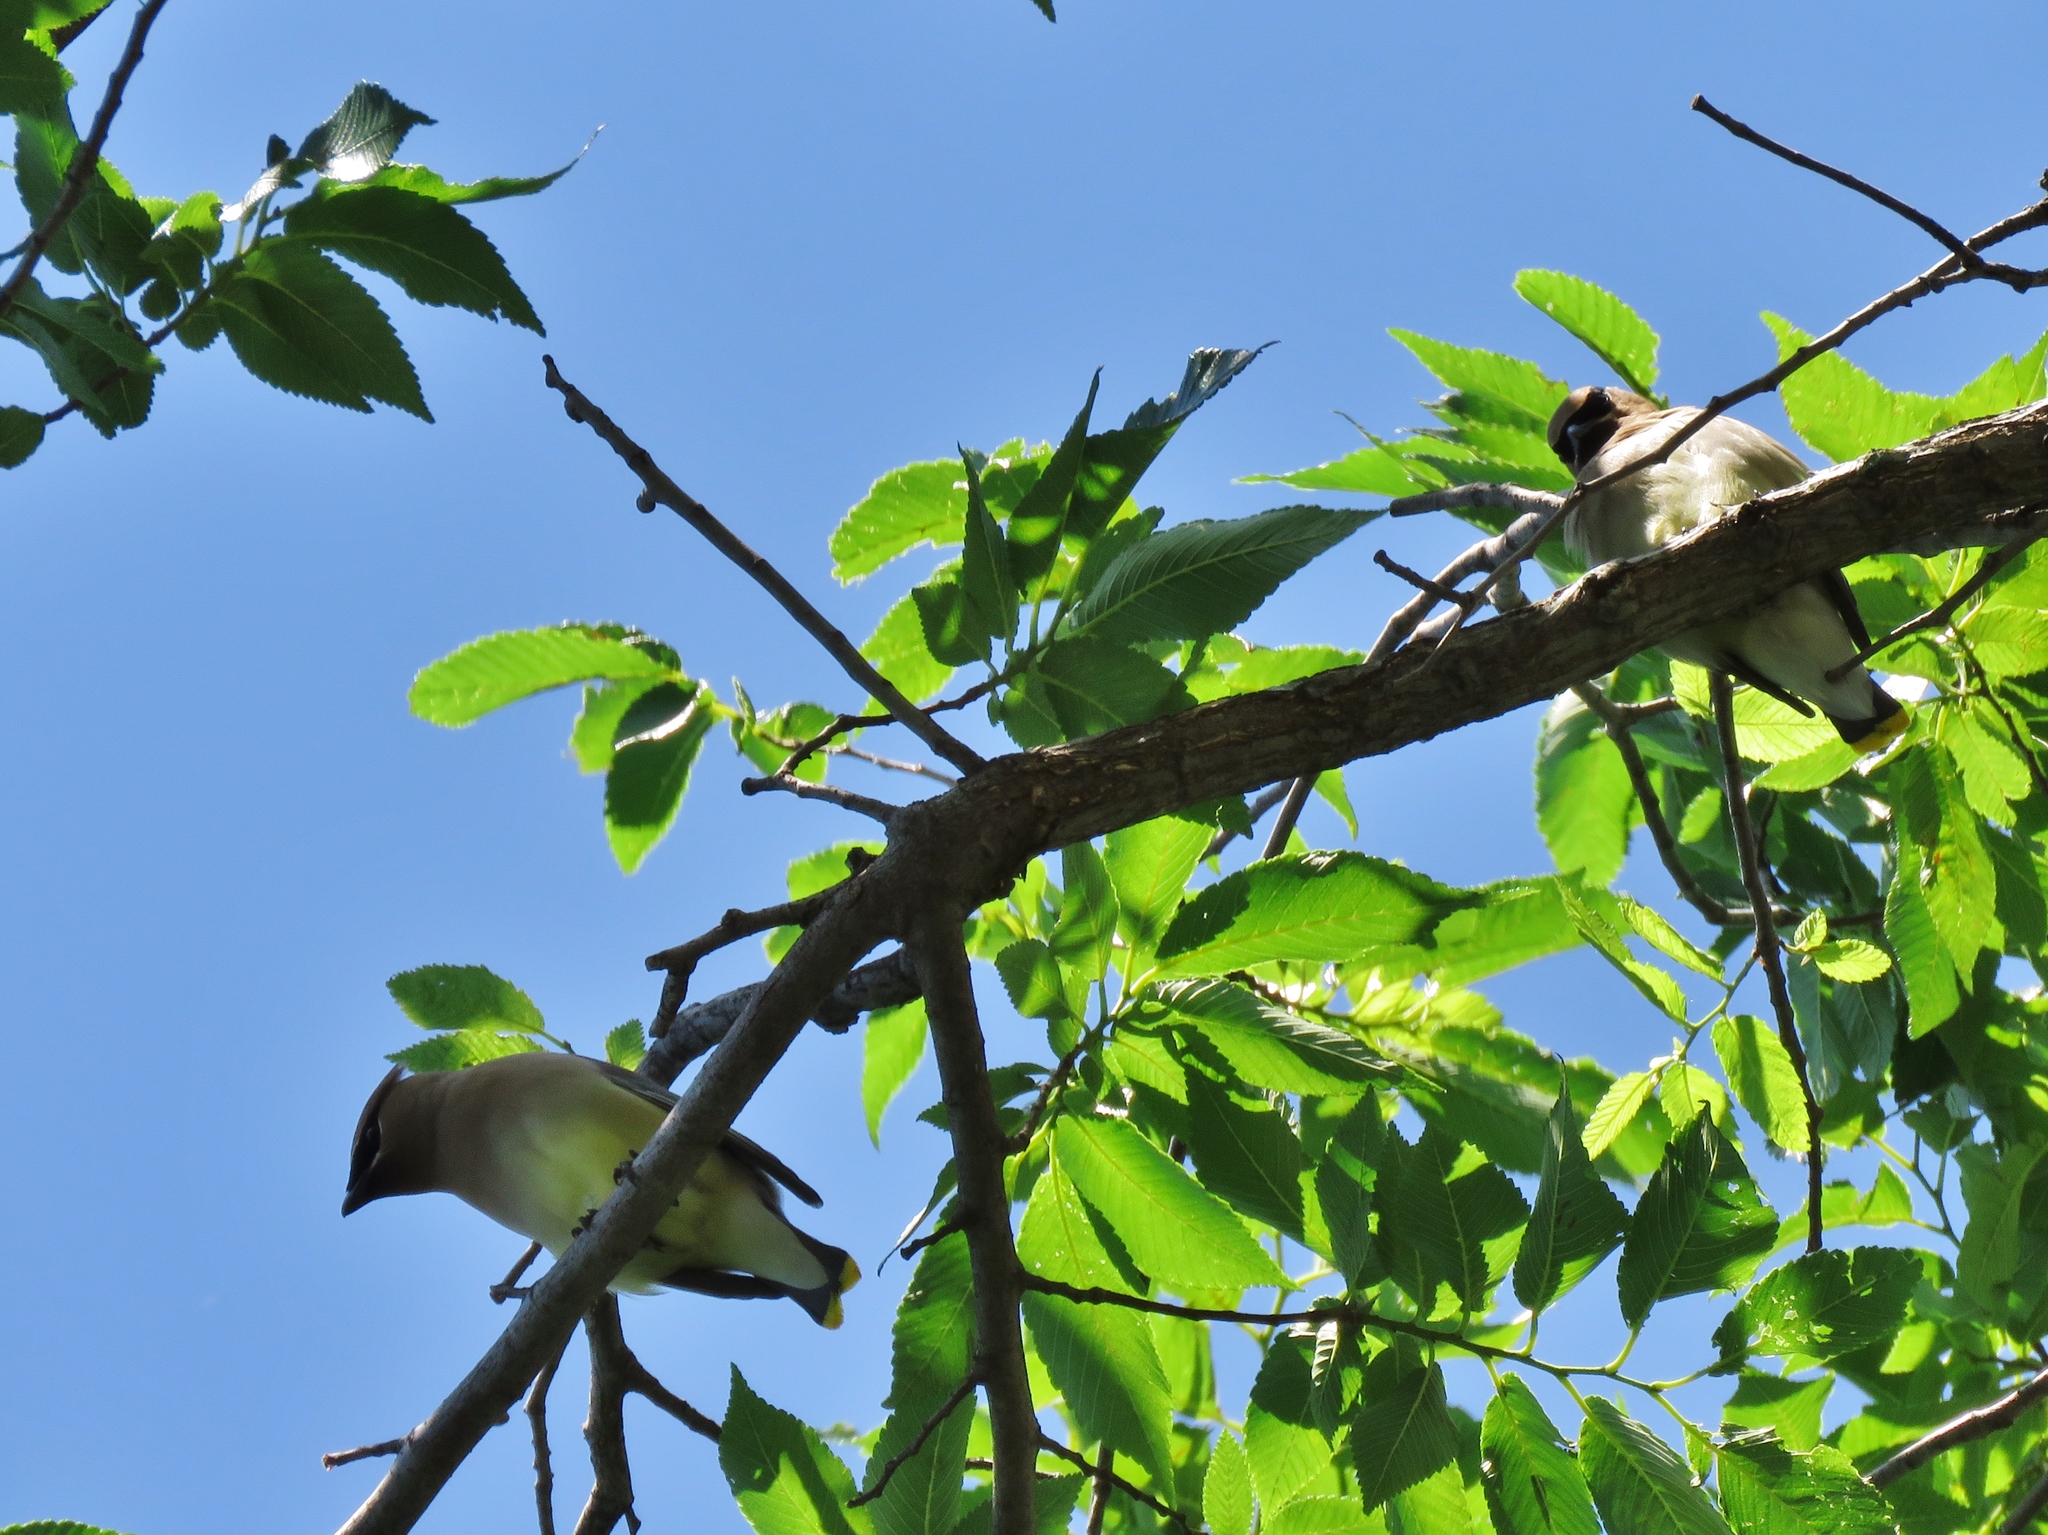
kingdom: Animalia
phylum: Chordata
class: Aves
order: Passeriformes
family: Bombycillidae
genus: Bombycilla
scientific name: Bombycilla cedrorum
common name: Cedar waxwing
